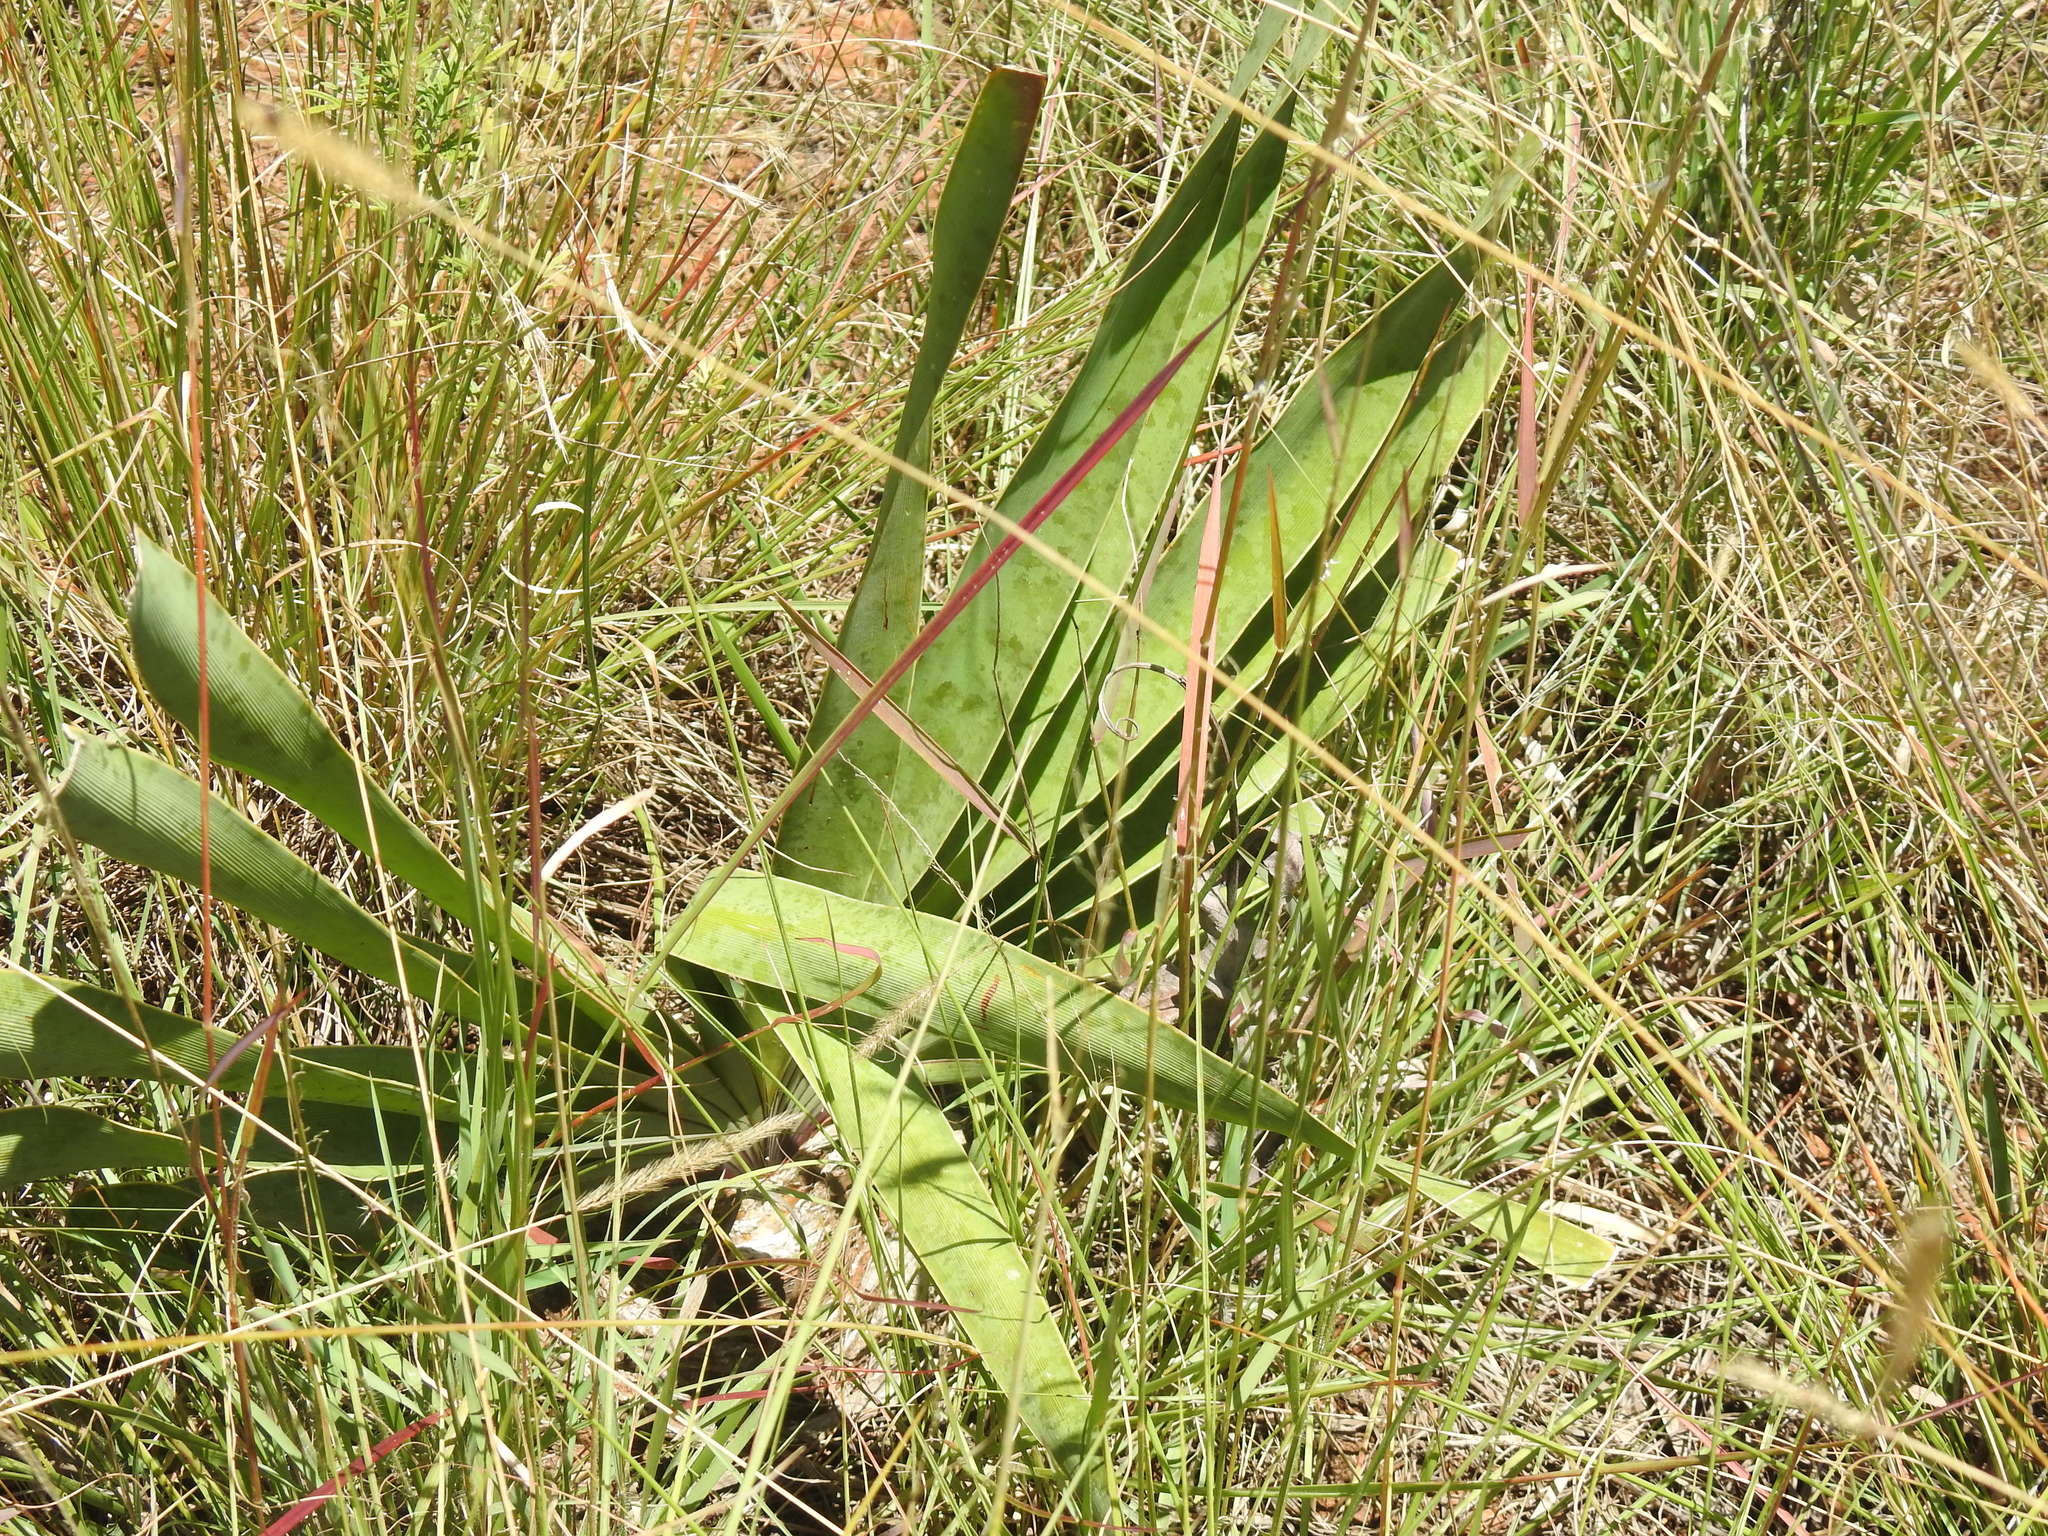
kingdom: Plantae
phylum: Tracheophyta
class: Liliopsida
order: Asparagales
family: Amaryllidaceae
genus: Boophone
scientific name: Boophone disticha
